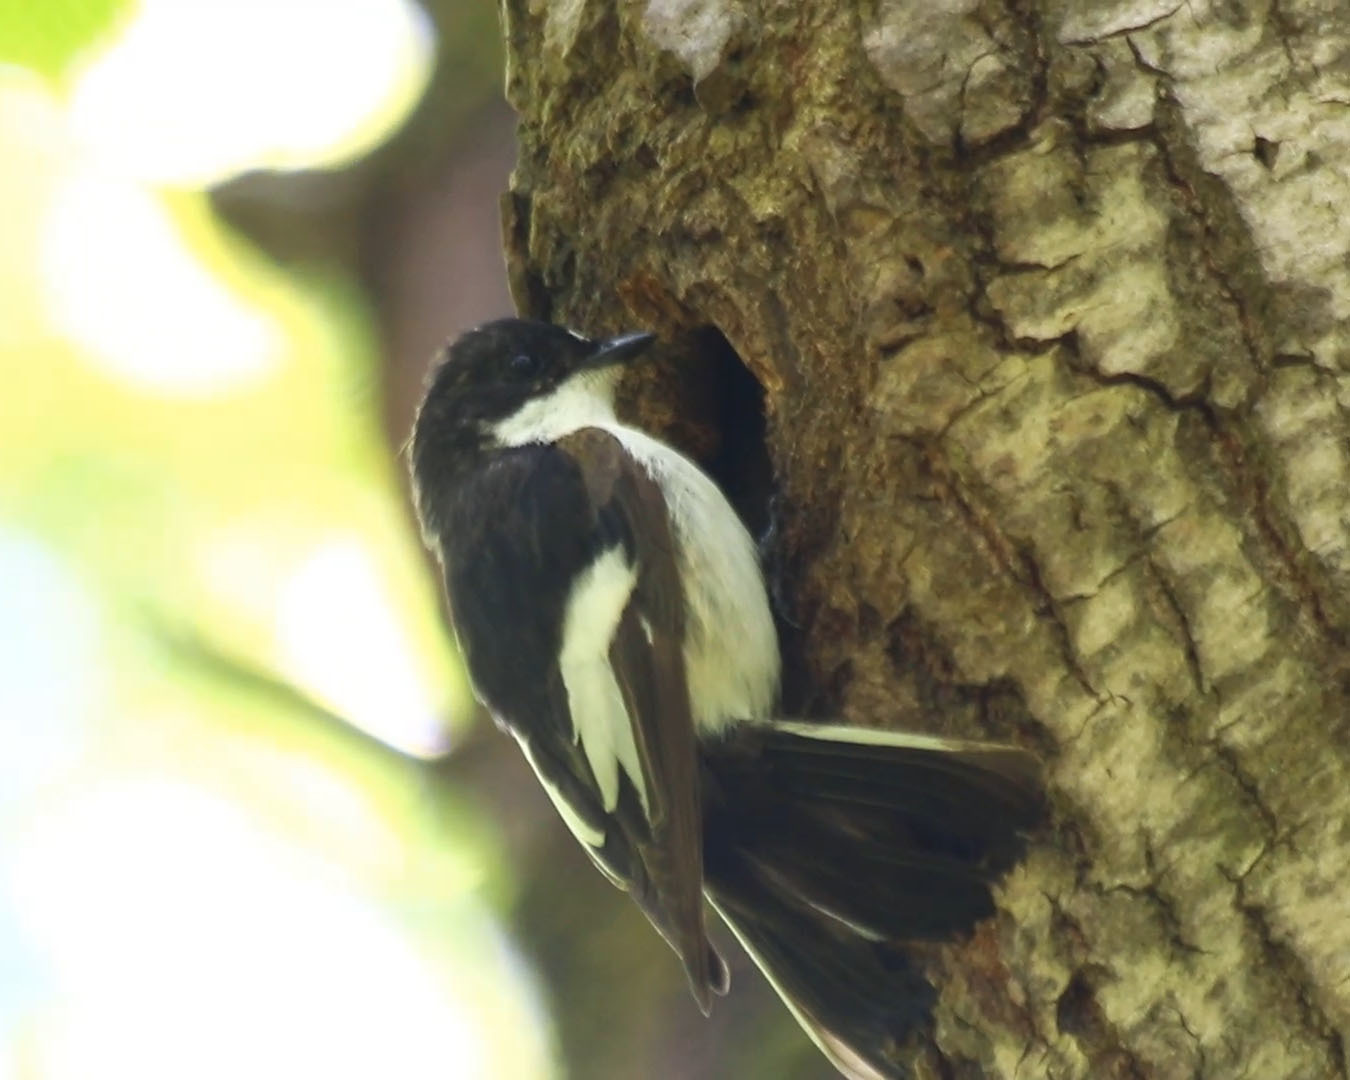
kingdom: Animalia
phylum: Chordata
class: Aves
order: Passeriformes
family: Muscicapidae
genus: Ficedula
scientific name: Ficedula hypoleuca
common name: European pied flycatcher
